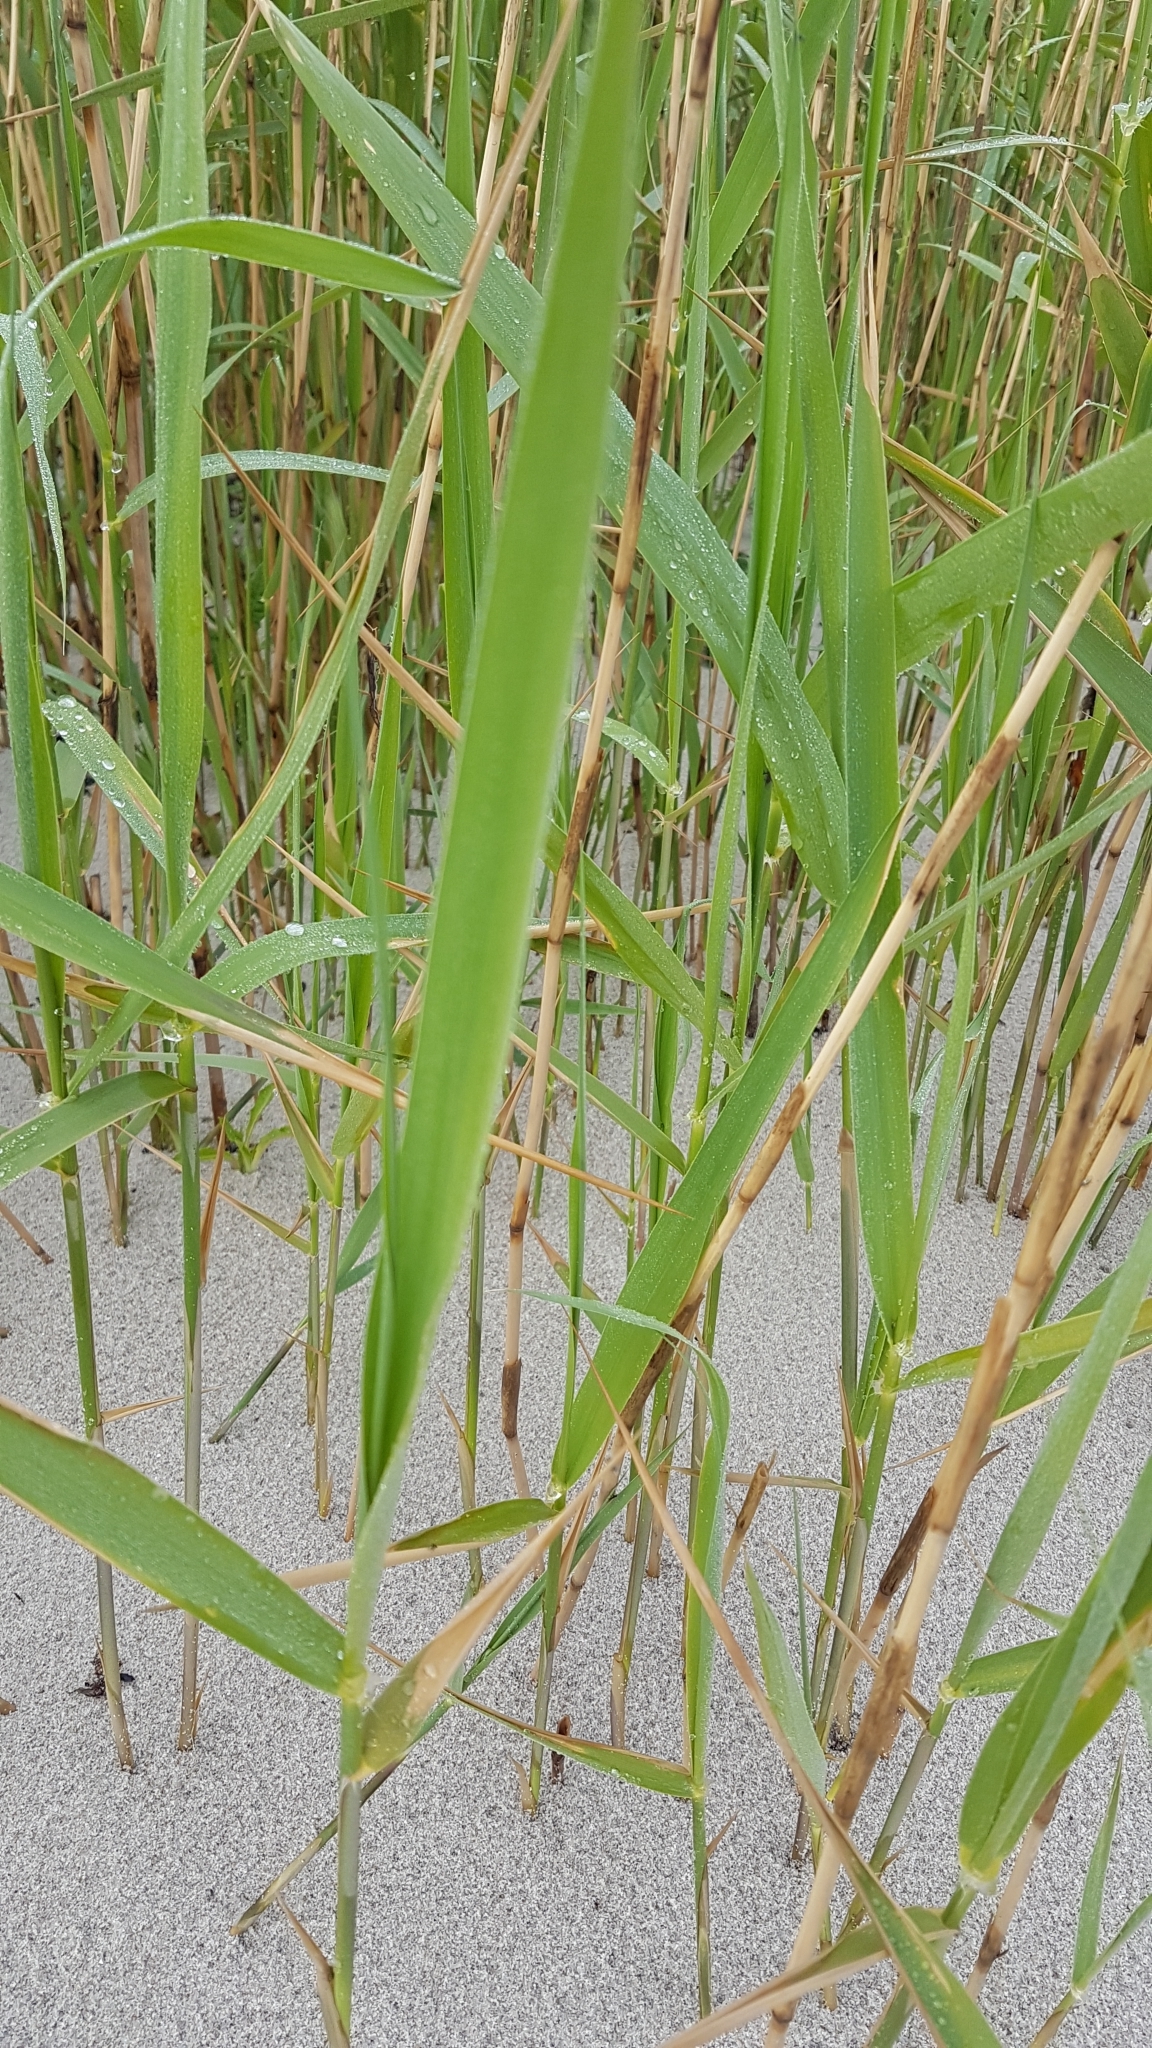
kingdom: Plantae
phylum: Tracheophyta
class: Liliopsida
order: Poales
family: Poaceae
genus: Phragmites
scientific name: Phragmites australis
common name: Common reed
